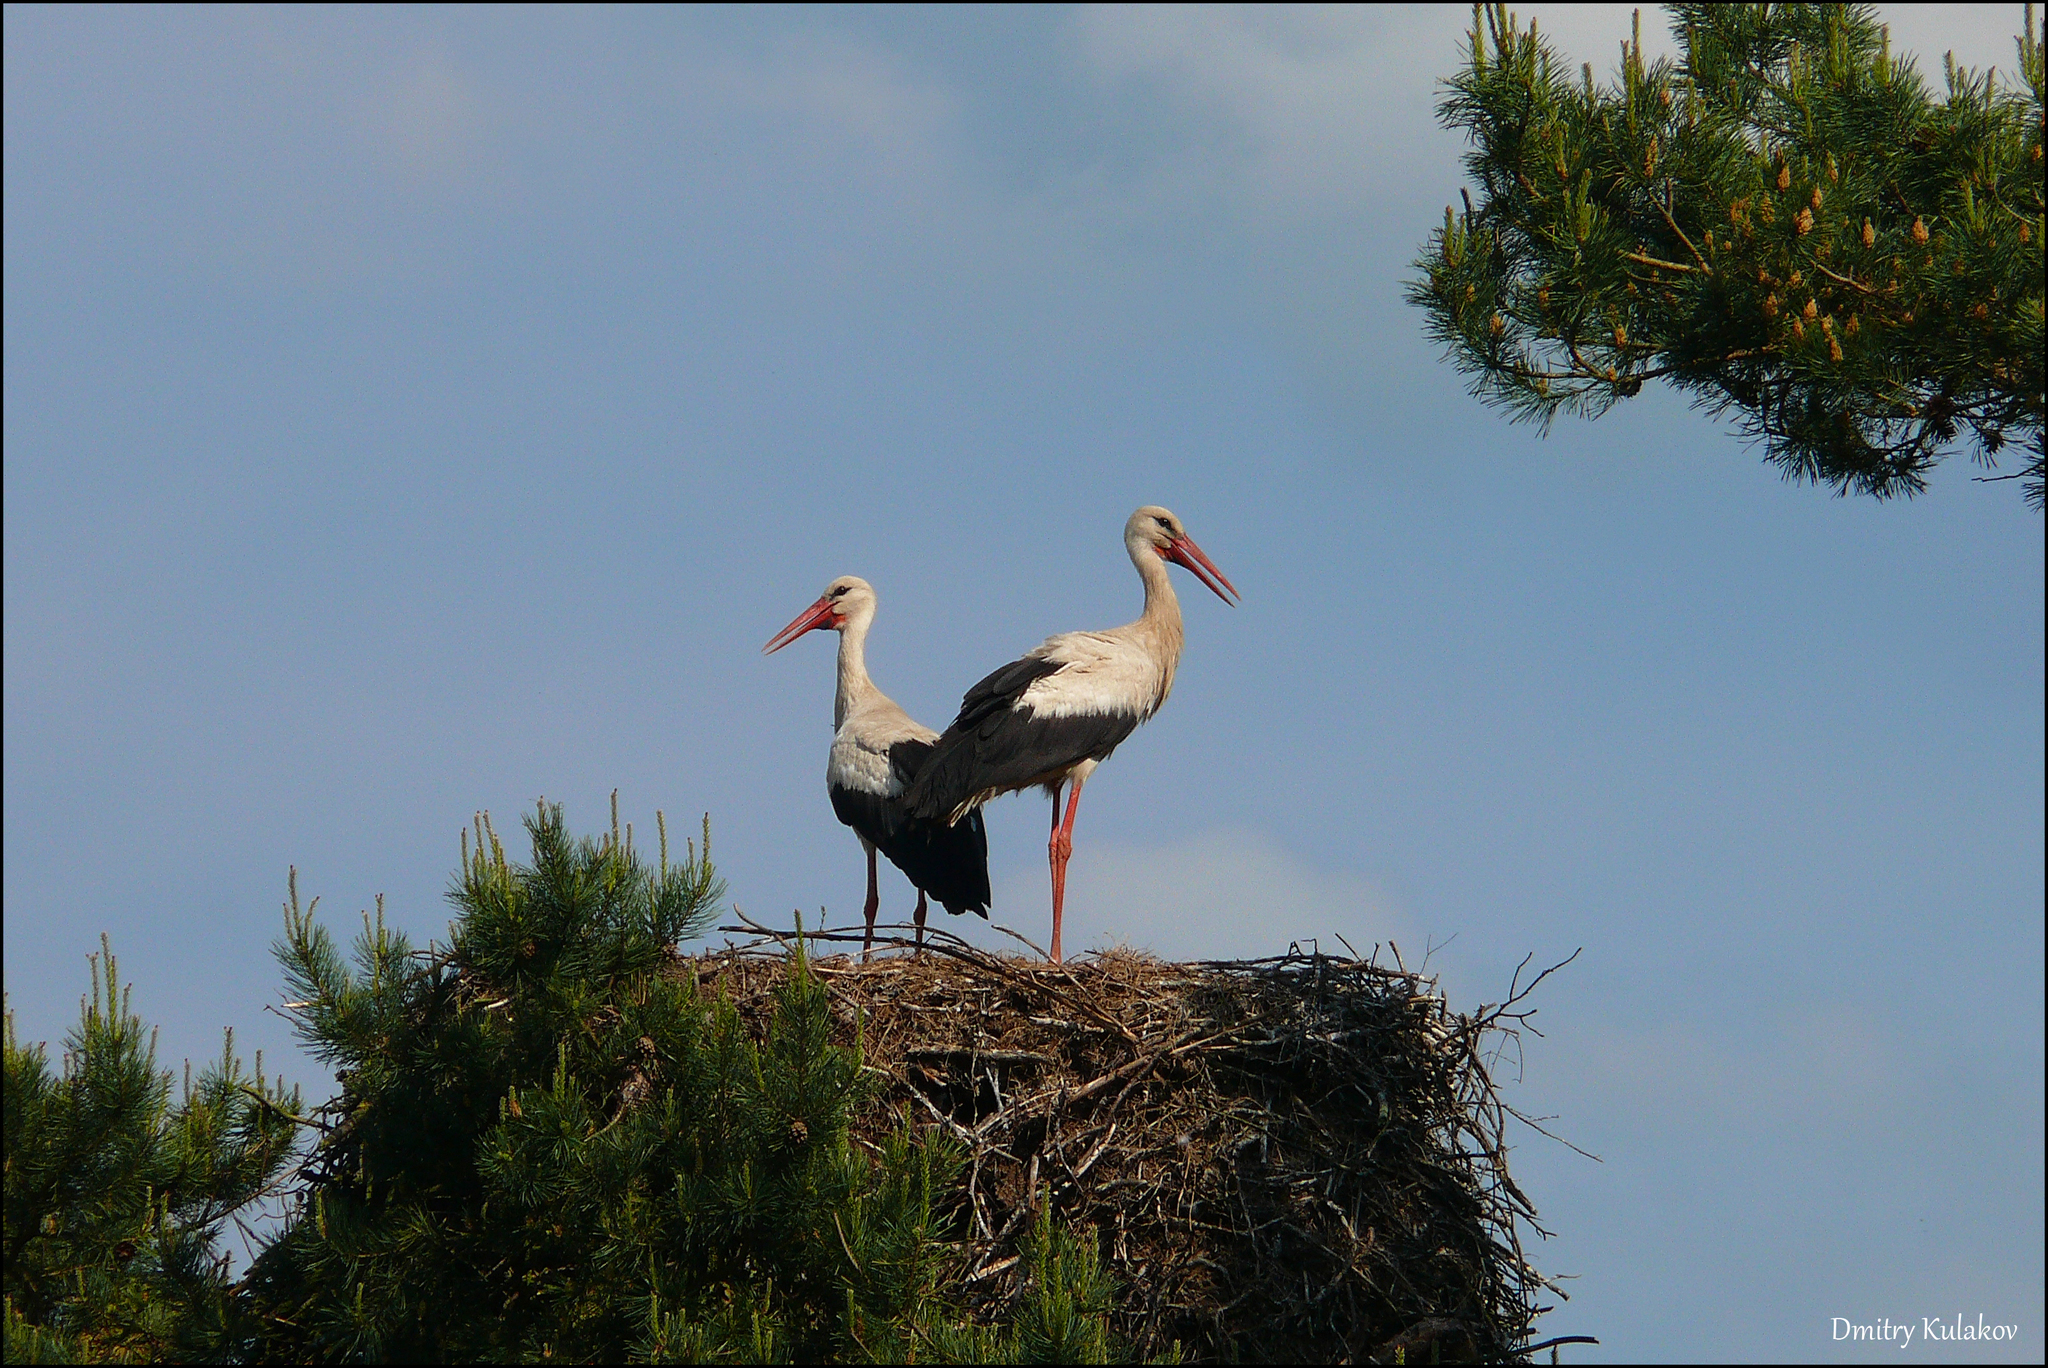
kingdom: Animalia
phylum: Chordata
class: Aves
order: Ciconiiformes
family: Ciconiidae
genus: Ciconia
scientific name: Ciconia ciconia
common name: White stork
